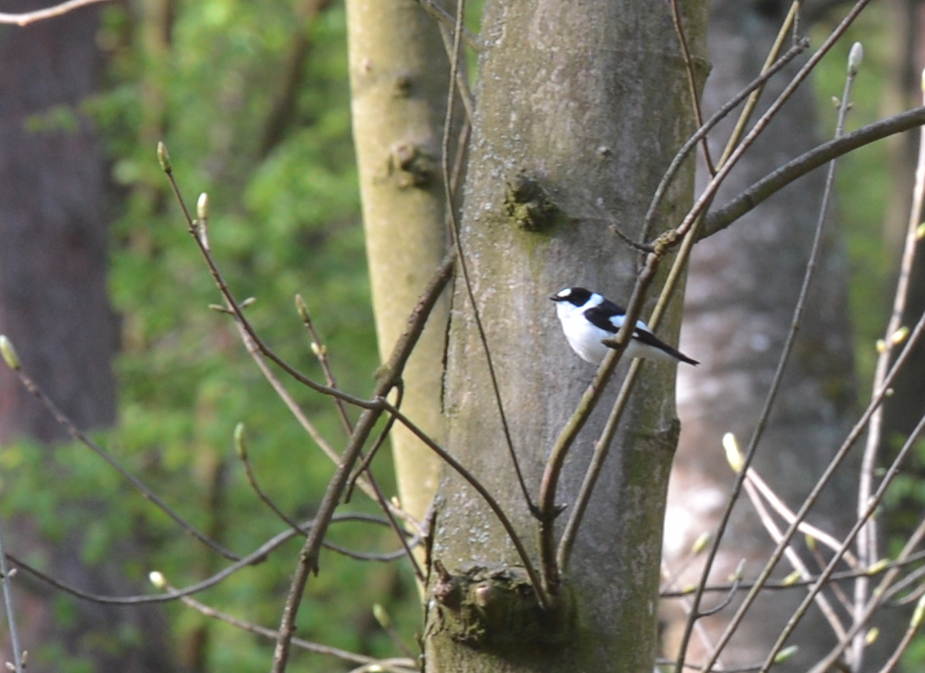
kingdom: Animalia
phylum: Chordata
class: Aves
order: Passeriformes
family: Muscicapidae
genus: Ficedula
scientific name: Ficedula albicollis
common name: Collared flycatcher
